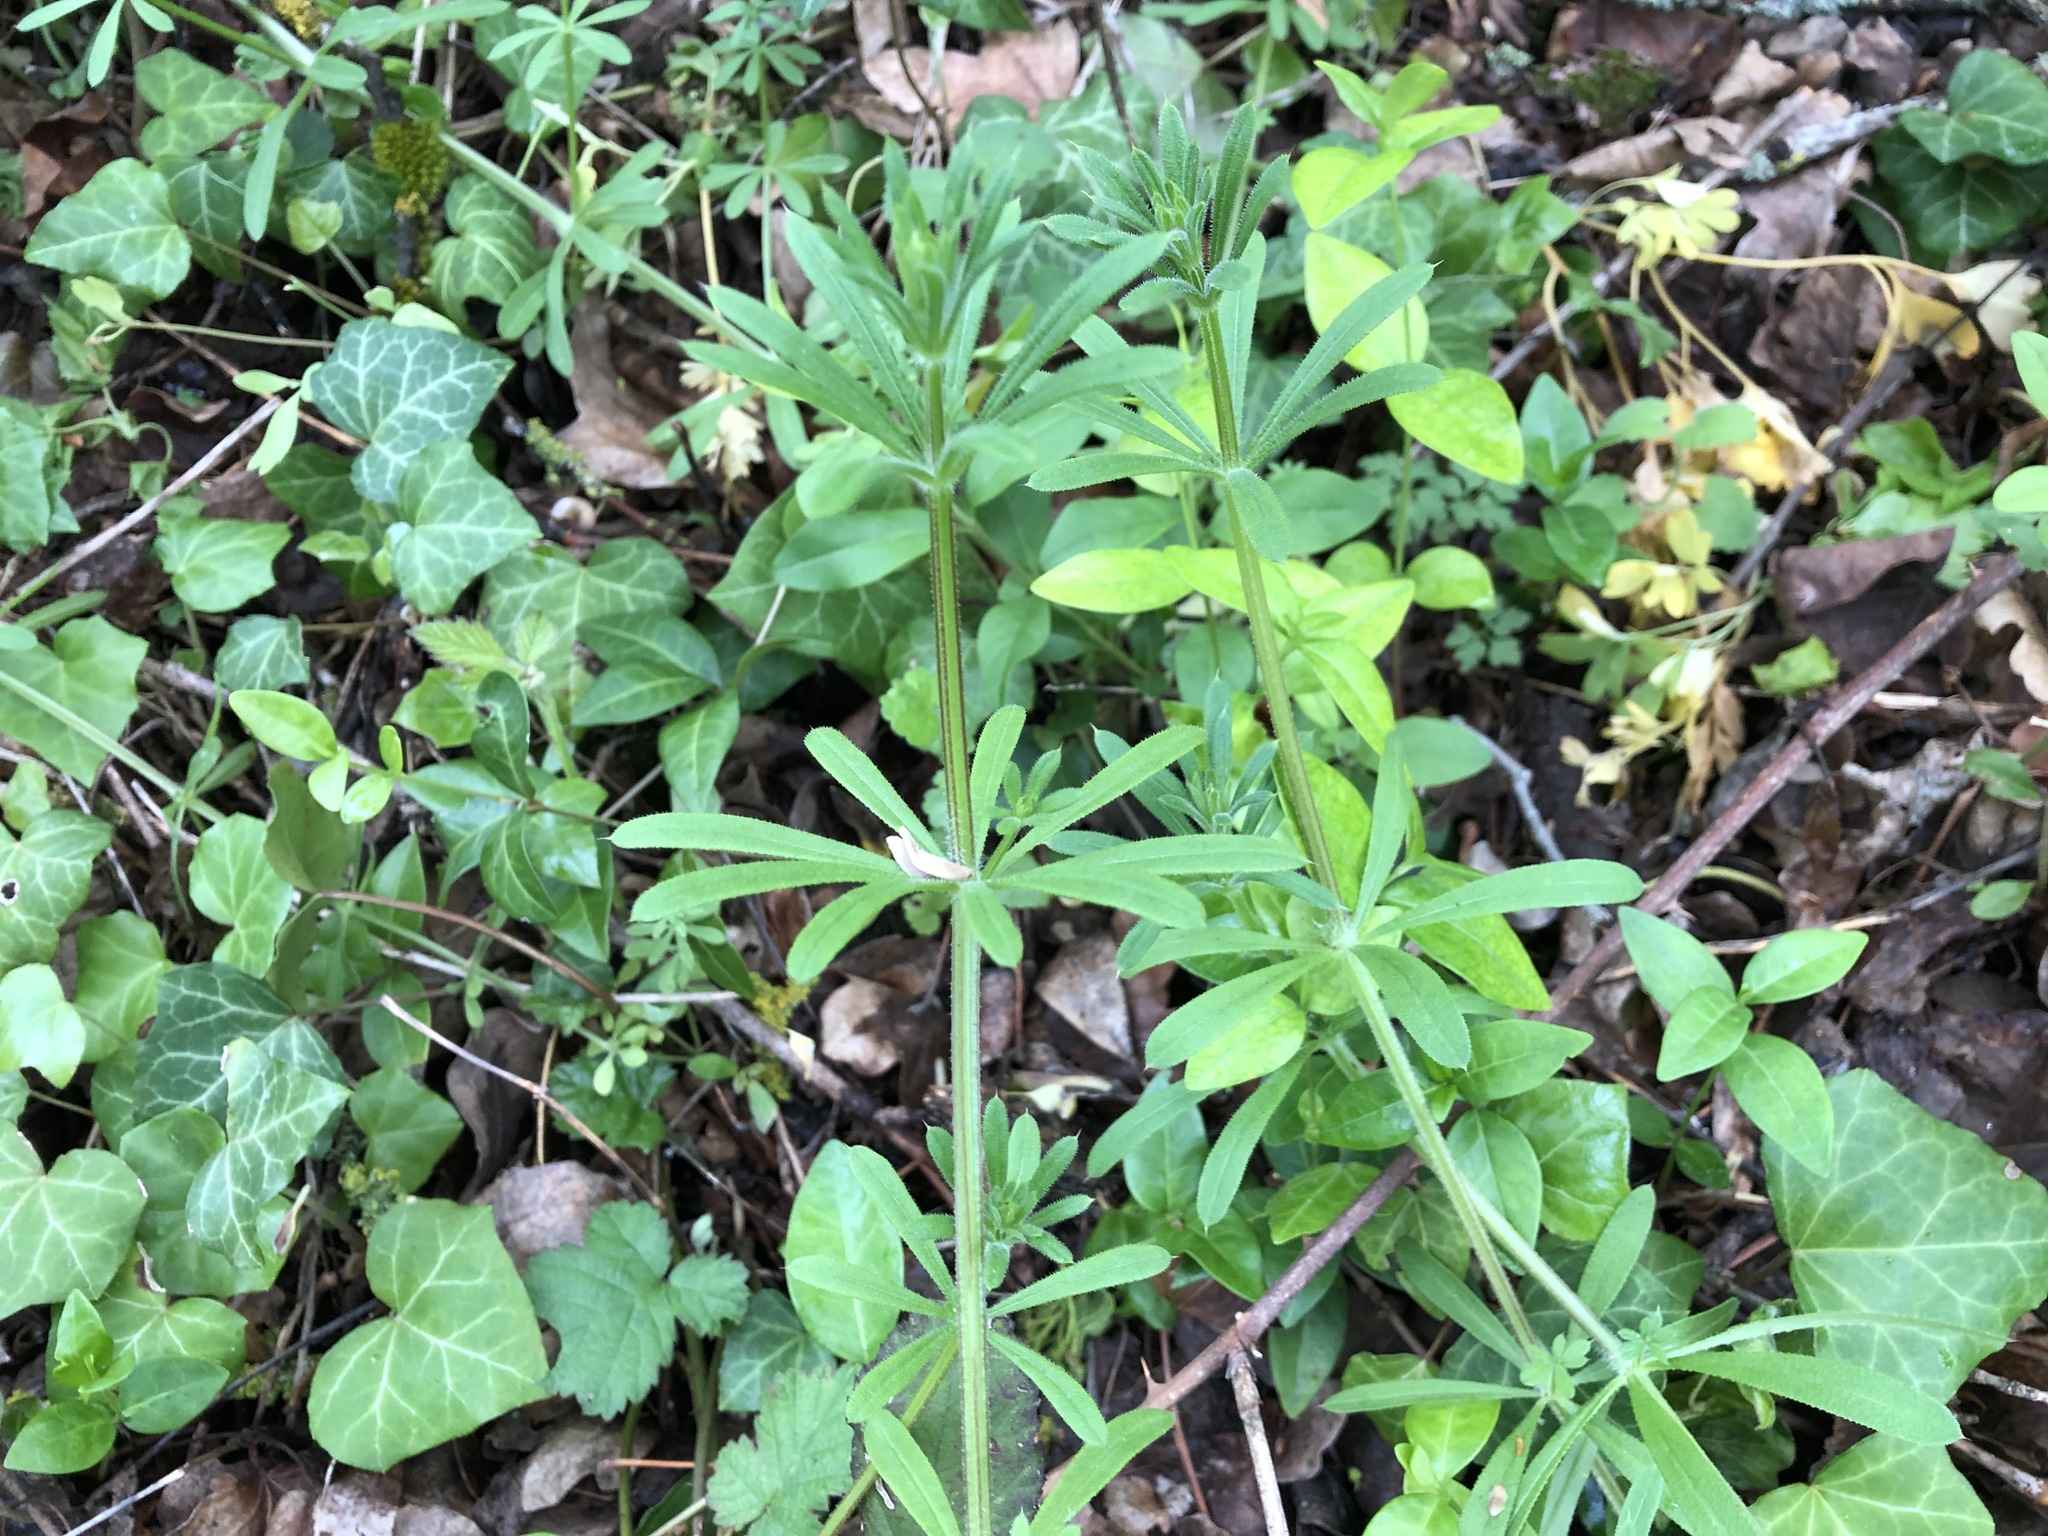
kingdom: Plantae
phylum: Tracheophyta
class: Magnoliopsida
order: Gentianales
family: Rubiaceae
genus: Galium
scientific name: Galium aparine
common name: Cleavers
